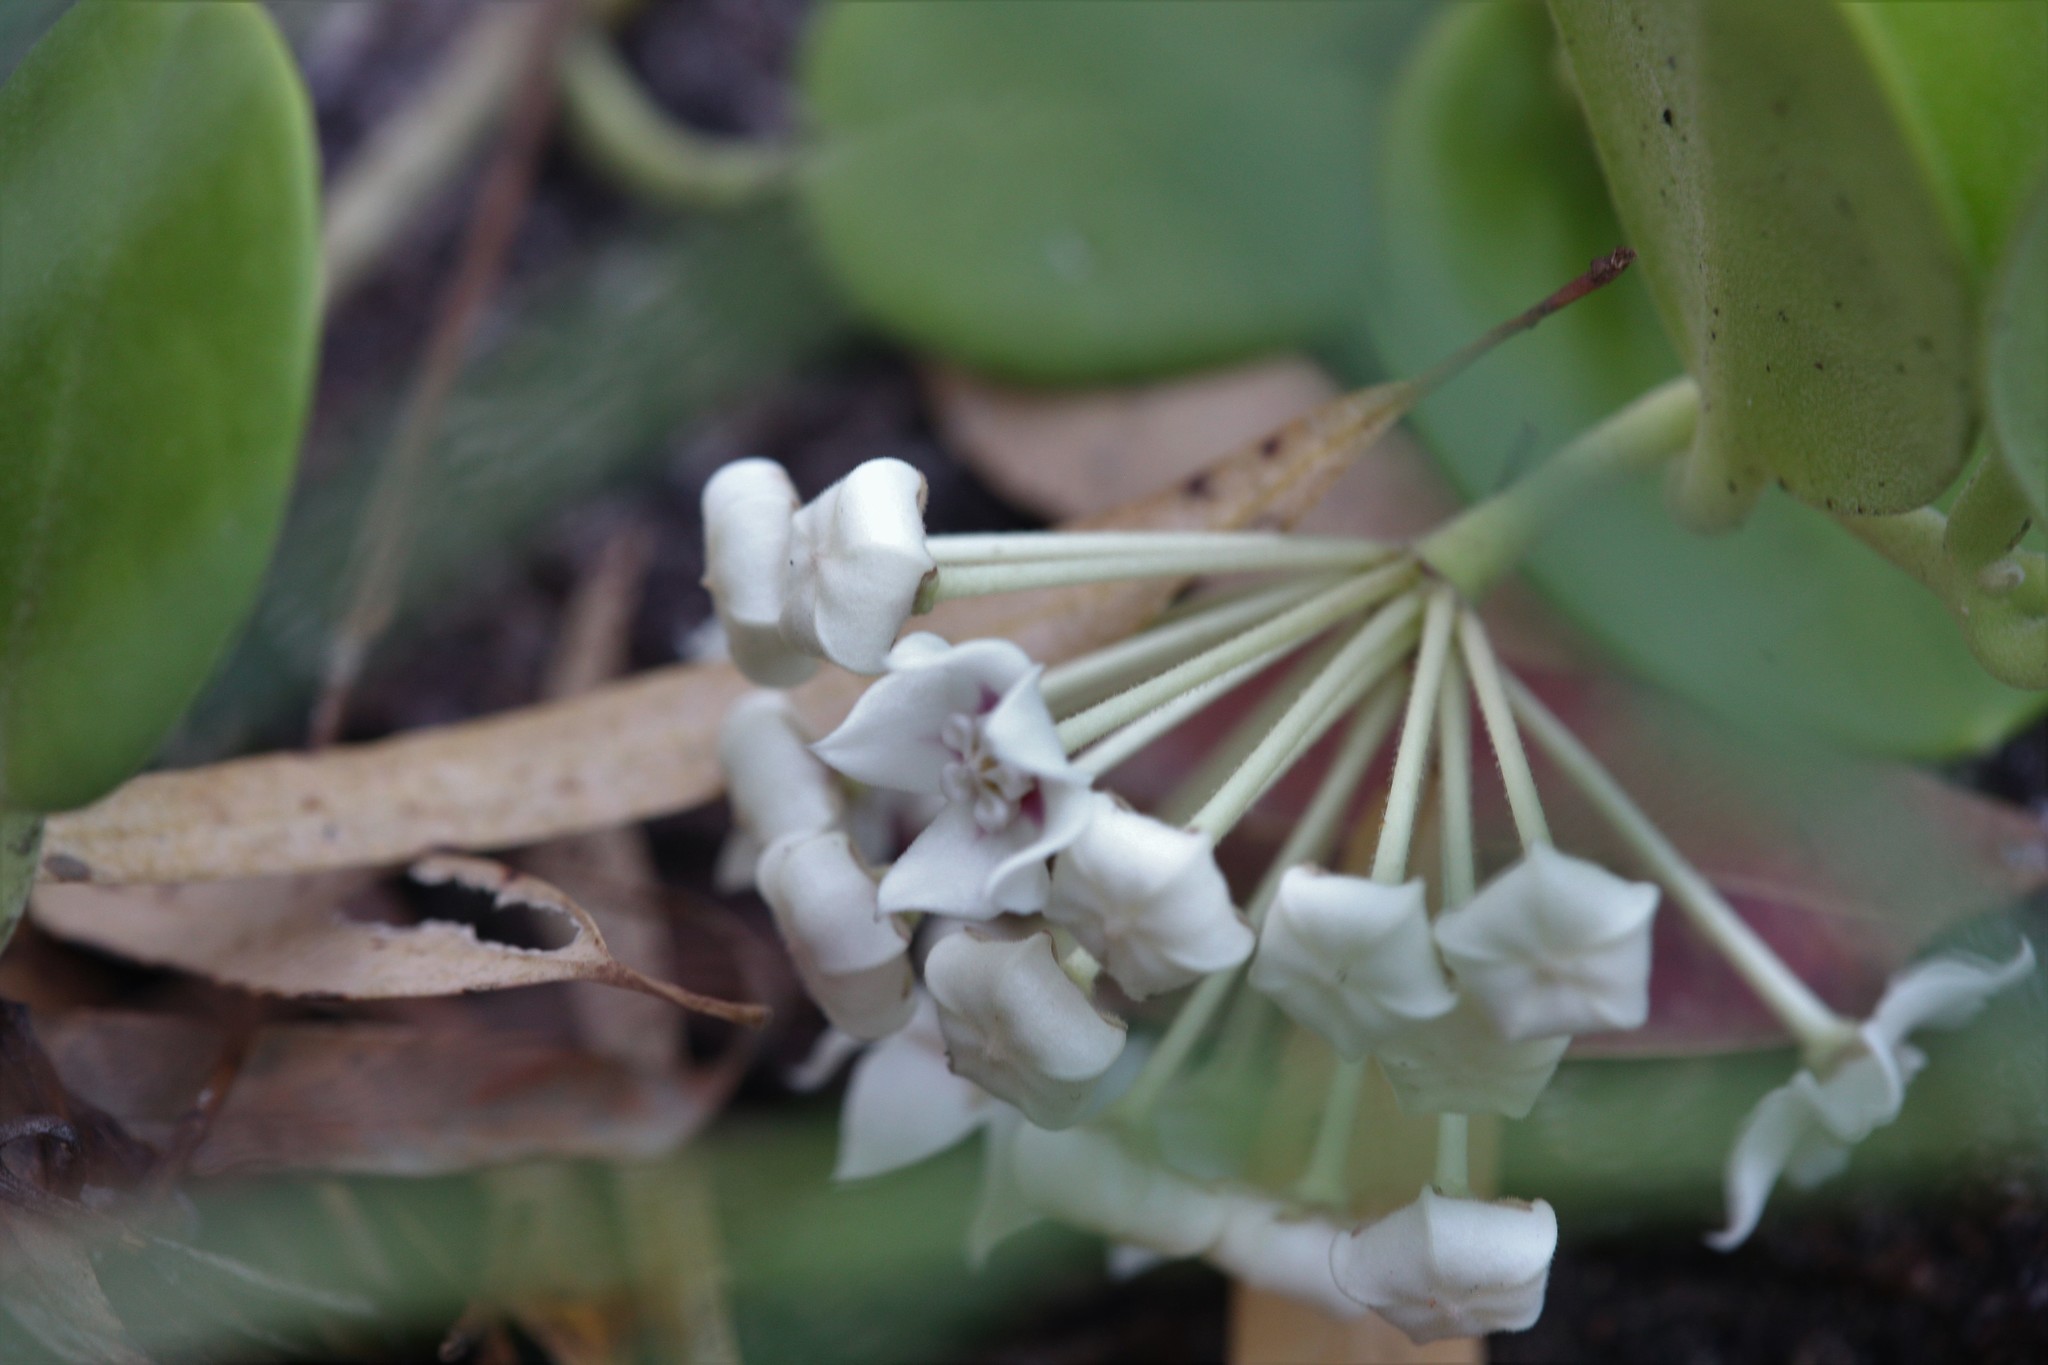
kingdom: Plantae
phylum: Tracheophyta
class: Magnoliopsida
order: Gentianales
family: Apocynaceae
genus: Hoya
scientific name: Hoya australis
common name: Wax flower
